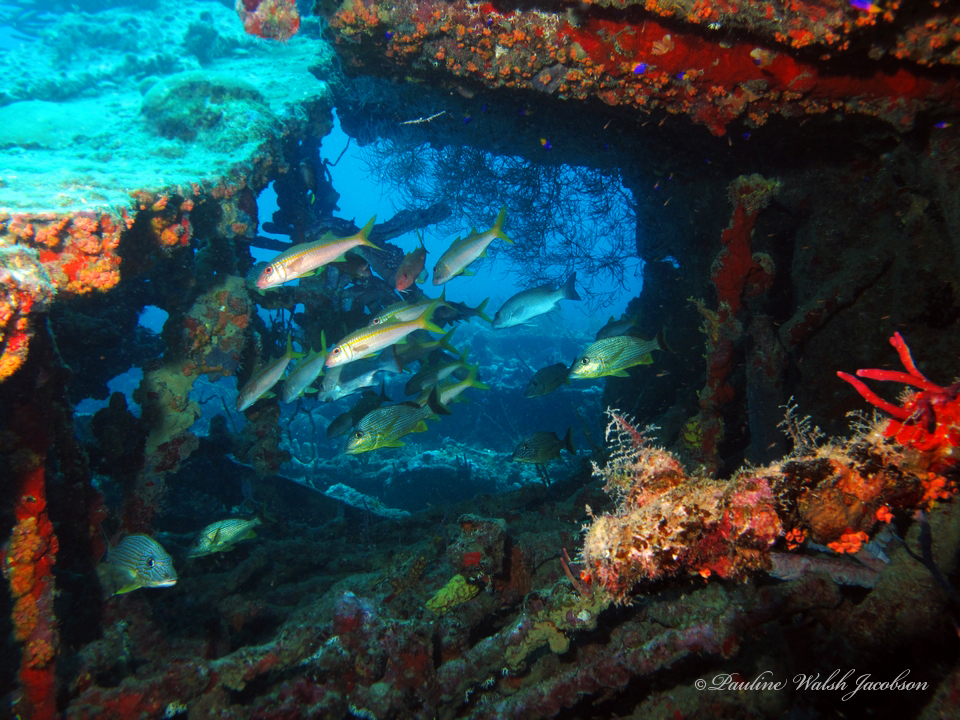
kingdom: Animalia
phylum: Chordata
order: Perciformes
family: Haemulidae
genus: Haemulon
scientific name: Haemulon carbonarium
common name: Caesar grunt
